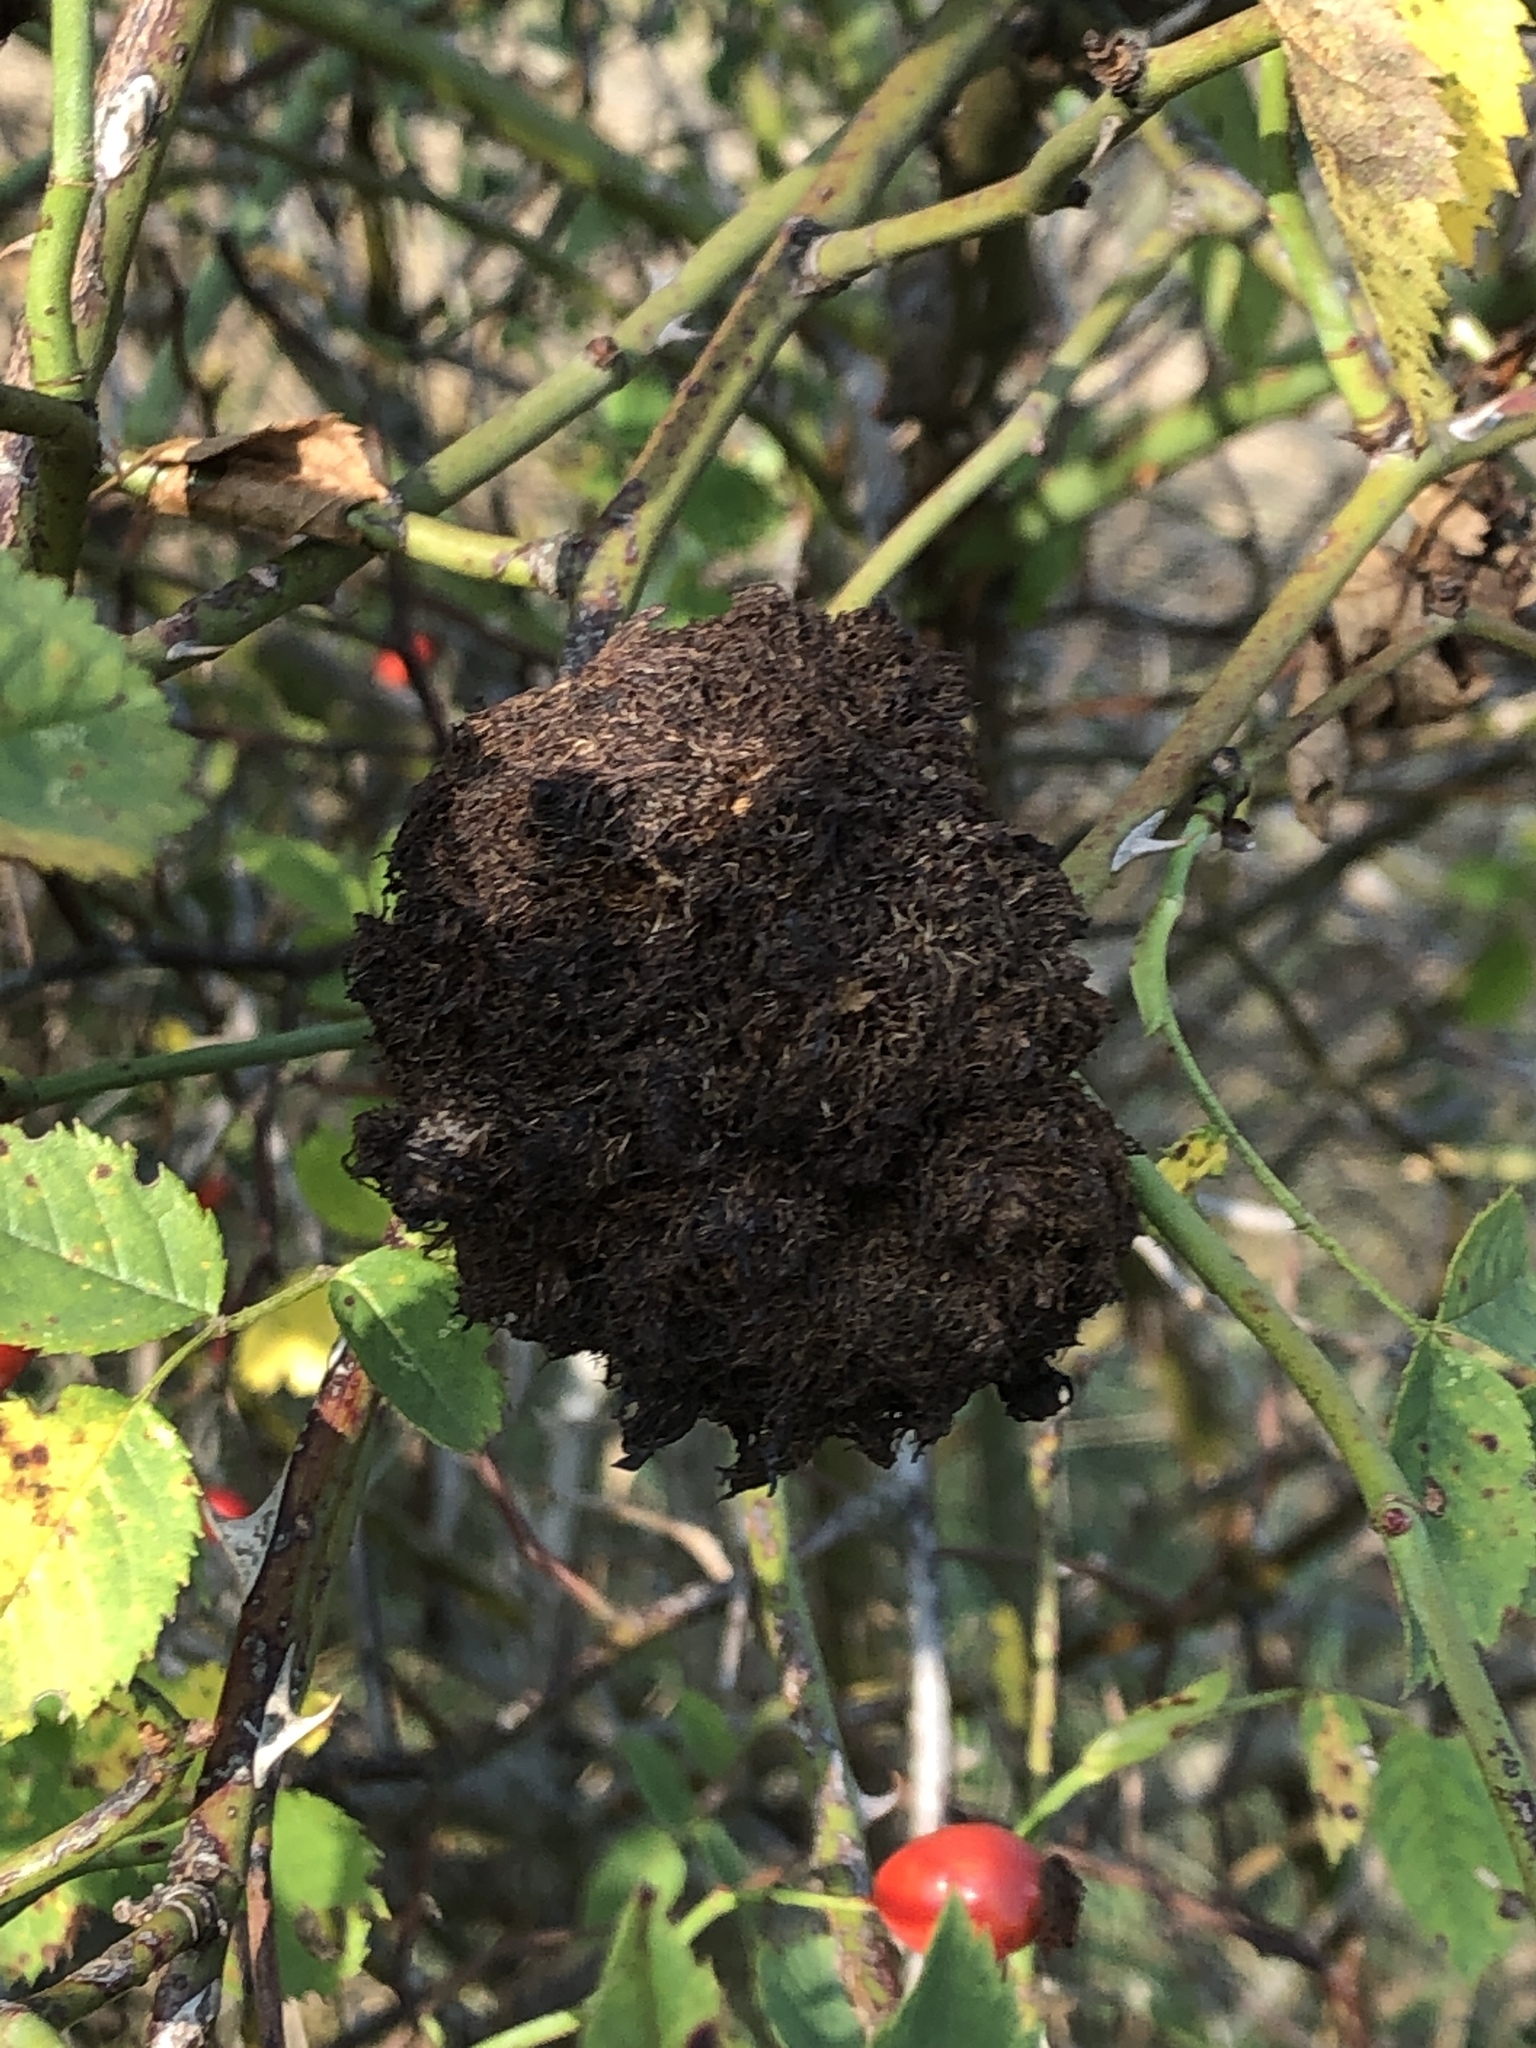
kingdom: Animalia
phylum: Arthropoda
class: Insecta
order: Hymenoptera
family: Cynipidae
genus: Diplolepis
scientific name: Diplolepis rosae
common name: Bedeguar gall
